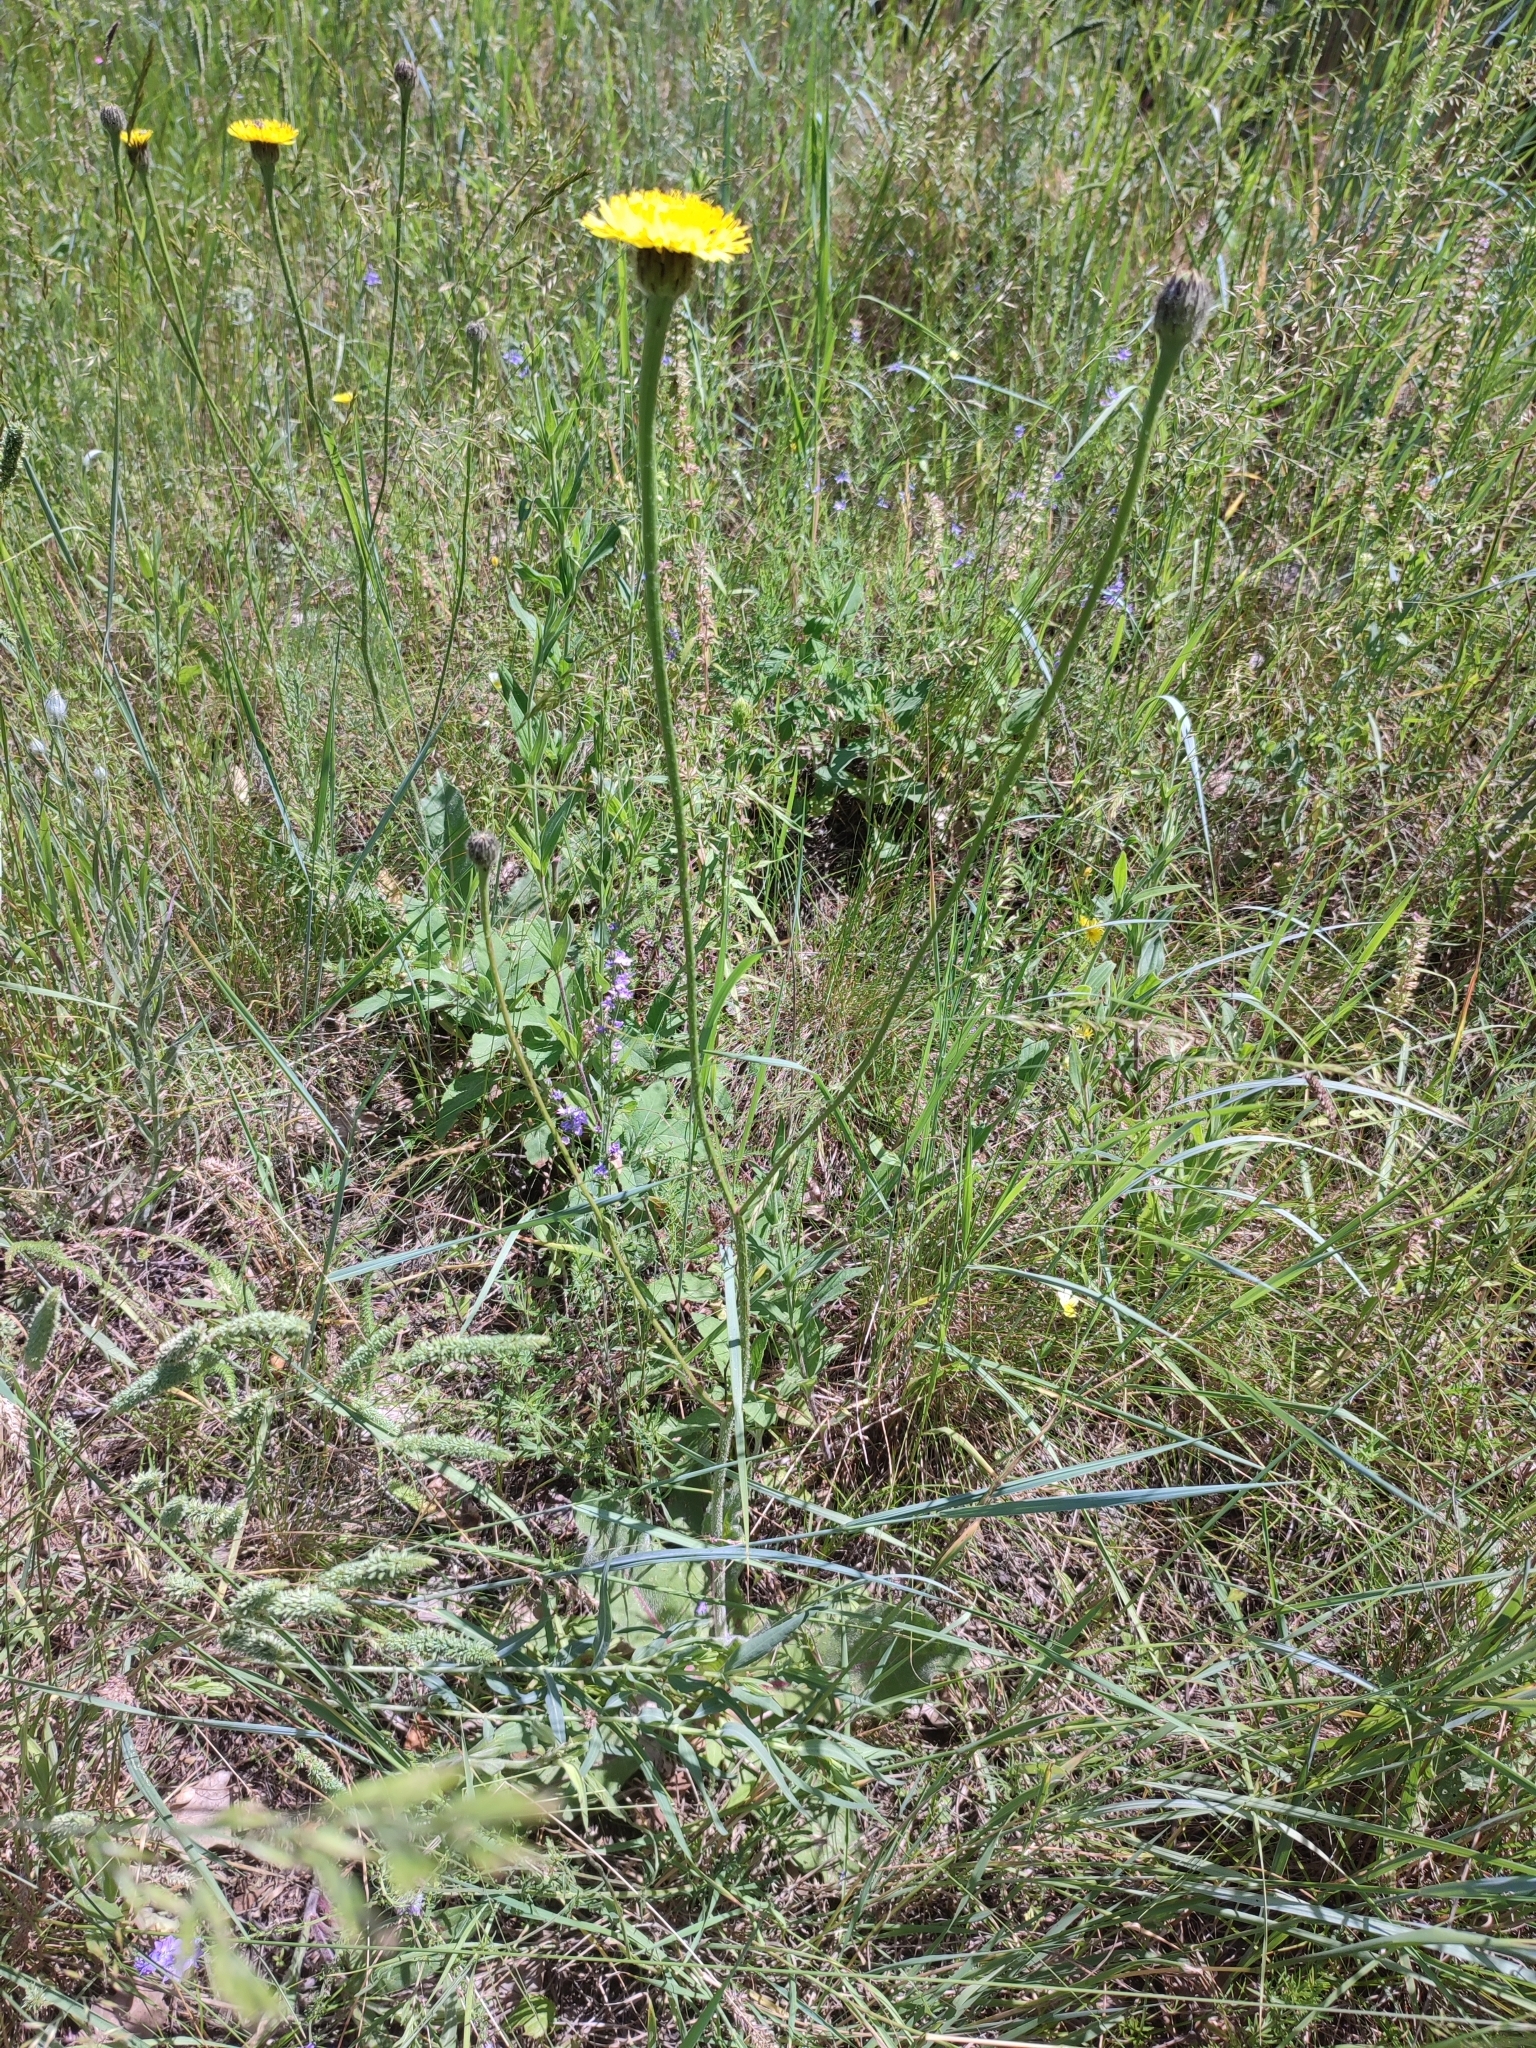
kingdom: Plantae
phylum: Tracheophyta
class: Magnoliopsida
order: Asterales
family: Asteraceae
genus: Trommsdorffia
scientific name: Trommsdorffia maculata
